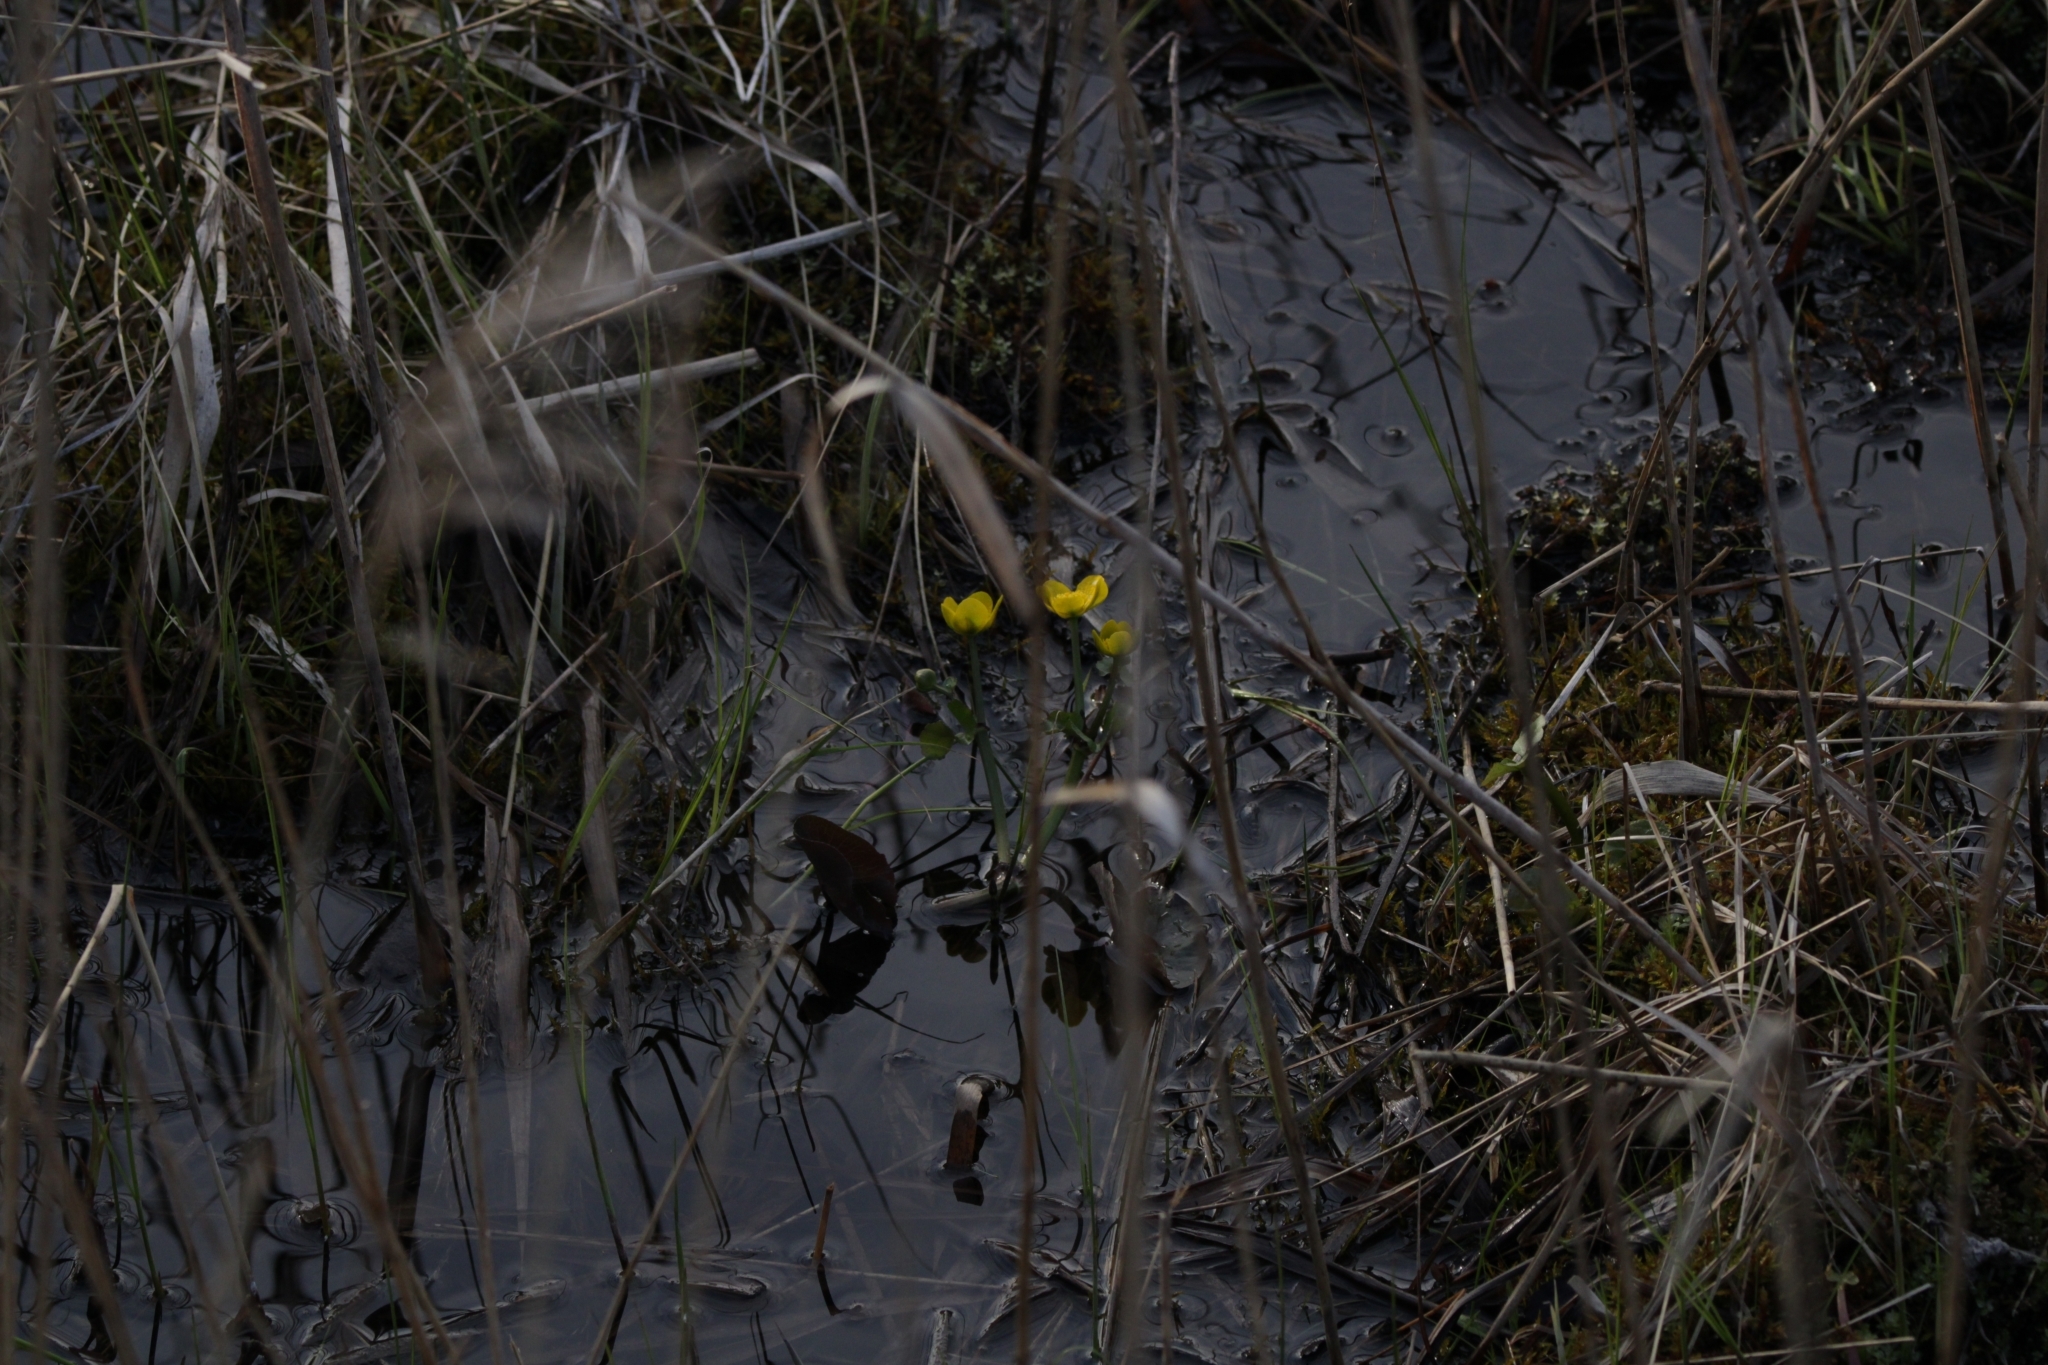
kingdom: Plantae
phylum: Tracheophyta
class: Magnoliopsida
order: Ranunculales
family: Ranunculaceae
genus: Caltha
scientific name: Caltha palustris
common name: Marsh marigold
